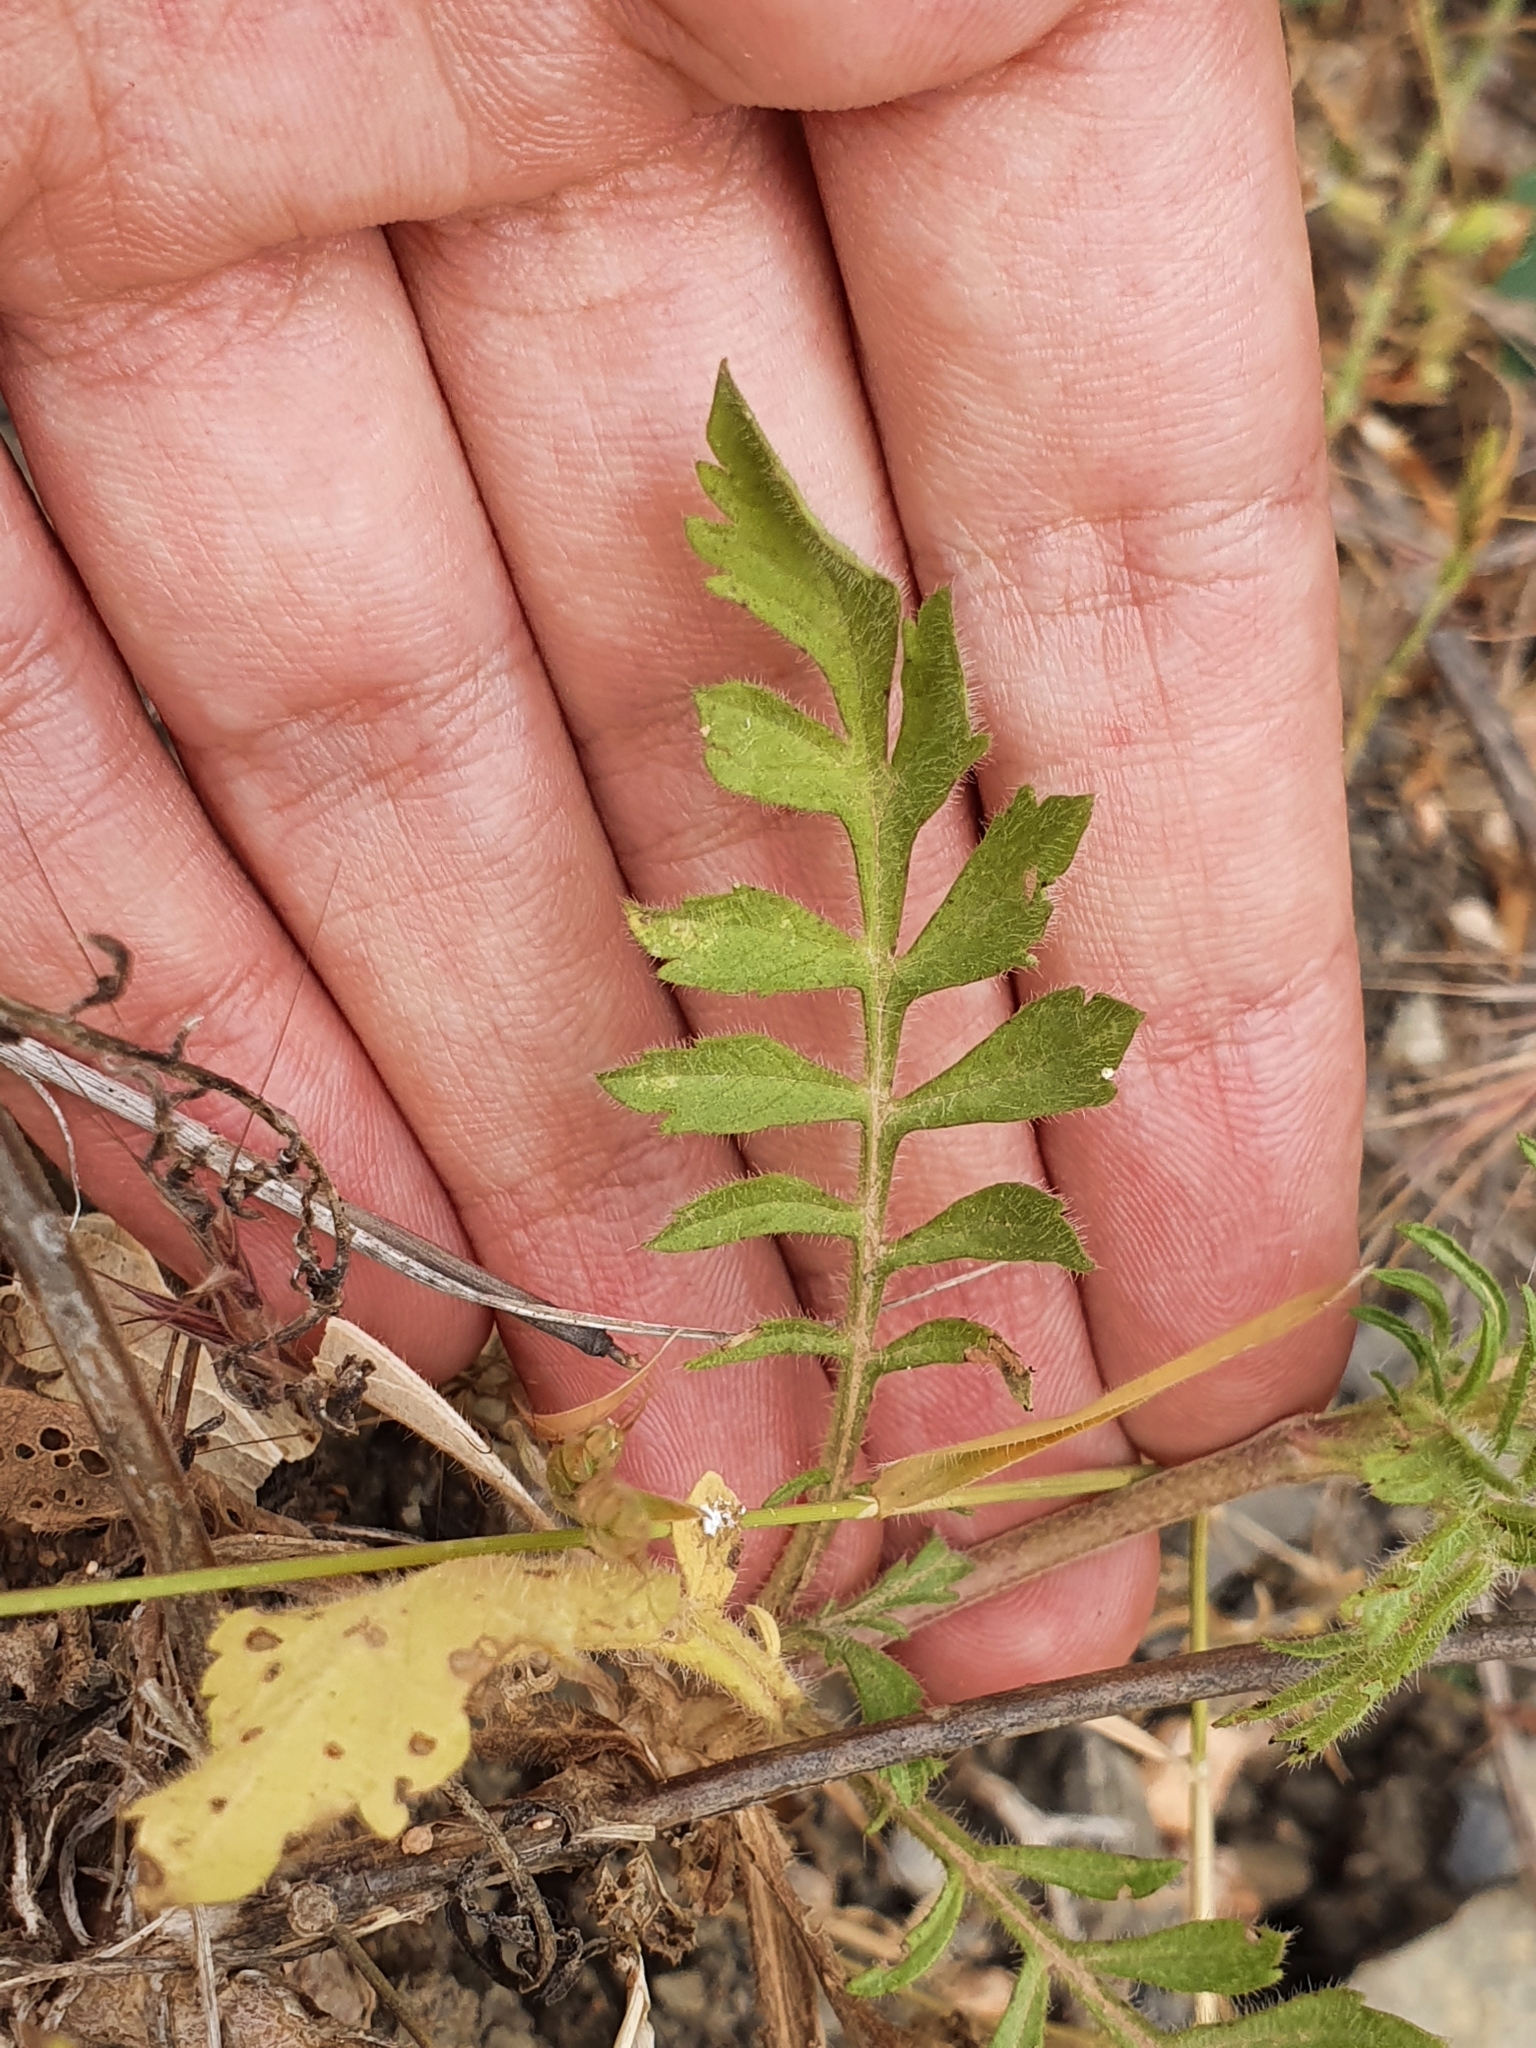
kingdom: Plantae
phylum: Tracheophyta
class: Magnoliopsida
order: Dipsacales
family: Caprifoliaceae
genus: Sixalix
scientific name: Sixalix maritima
